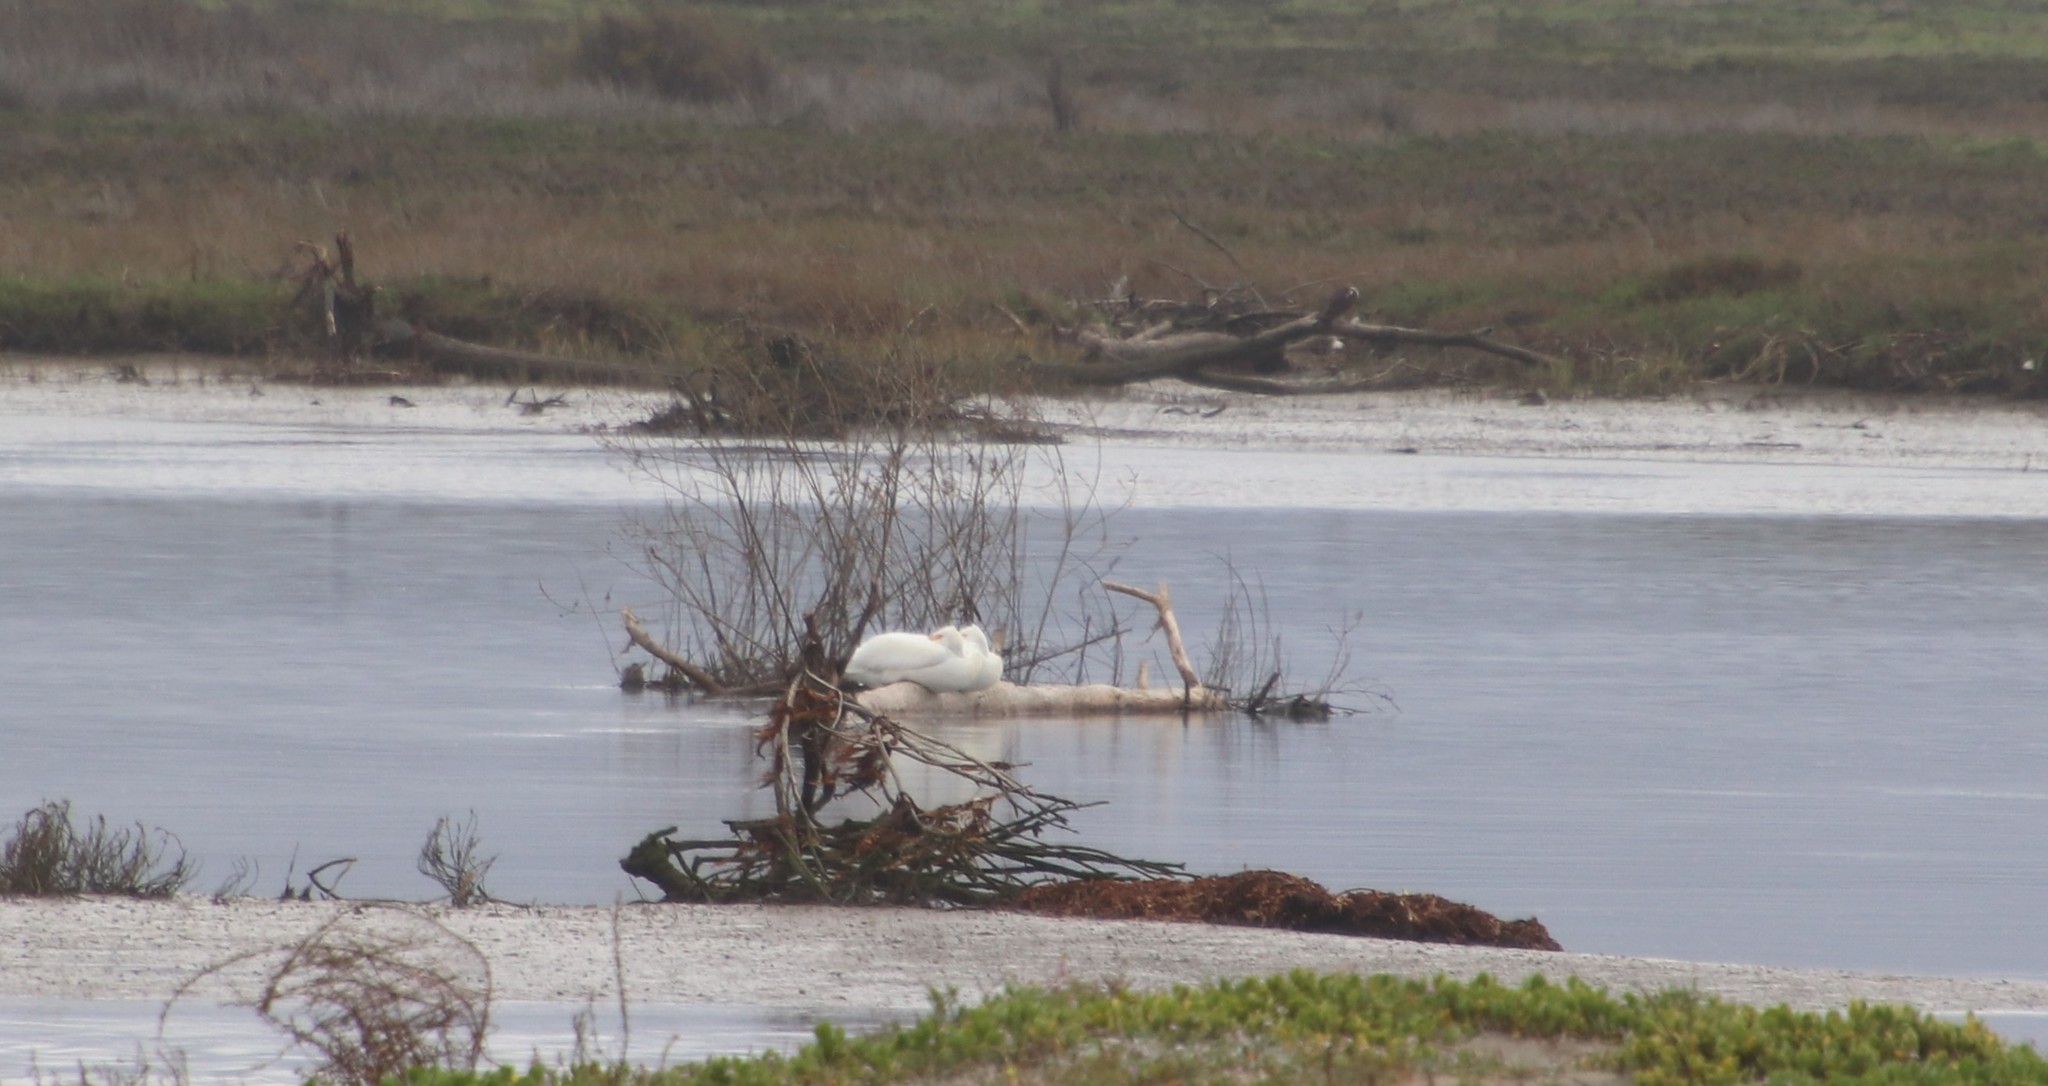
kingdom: Animalia
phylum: Chordata
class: Aves
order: Pelecaniformes
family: Pelecanidae
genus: Pelecanus
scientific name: Pelecanus erythrorhynchos
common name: American white pelican
